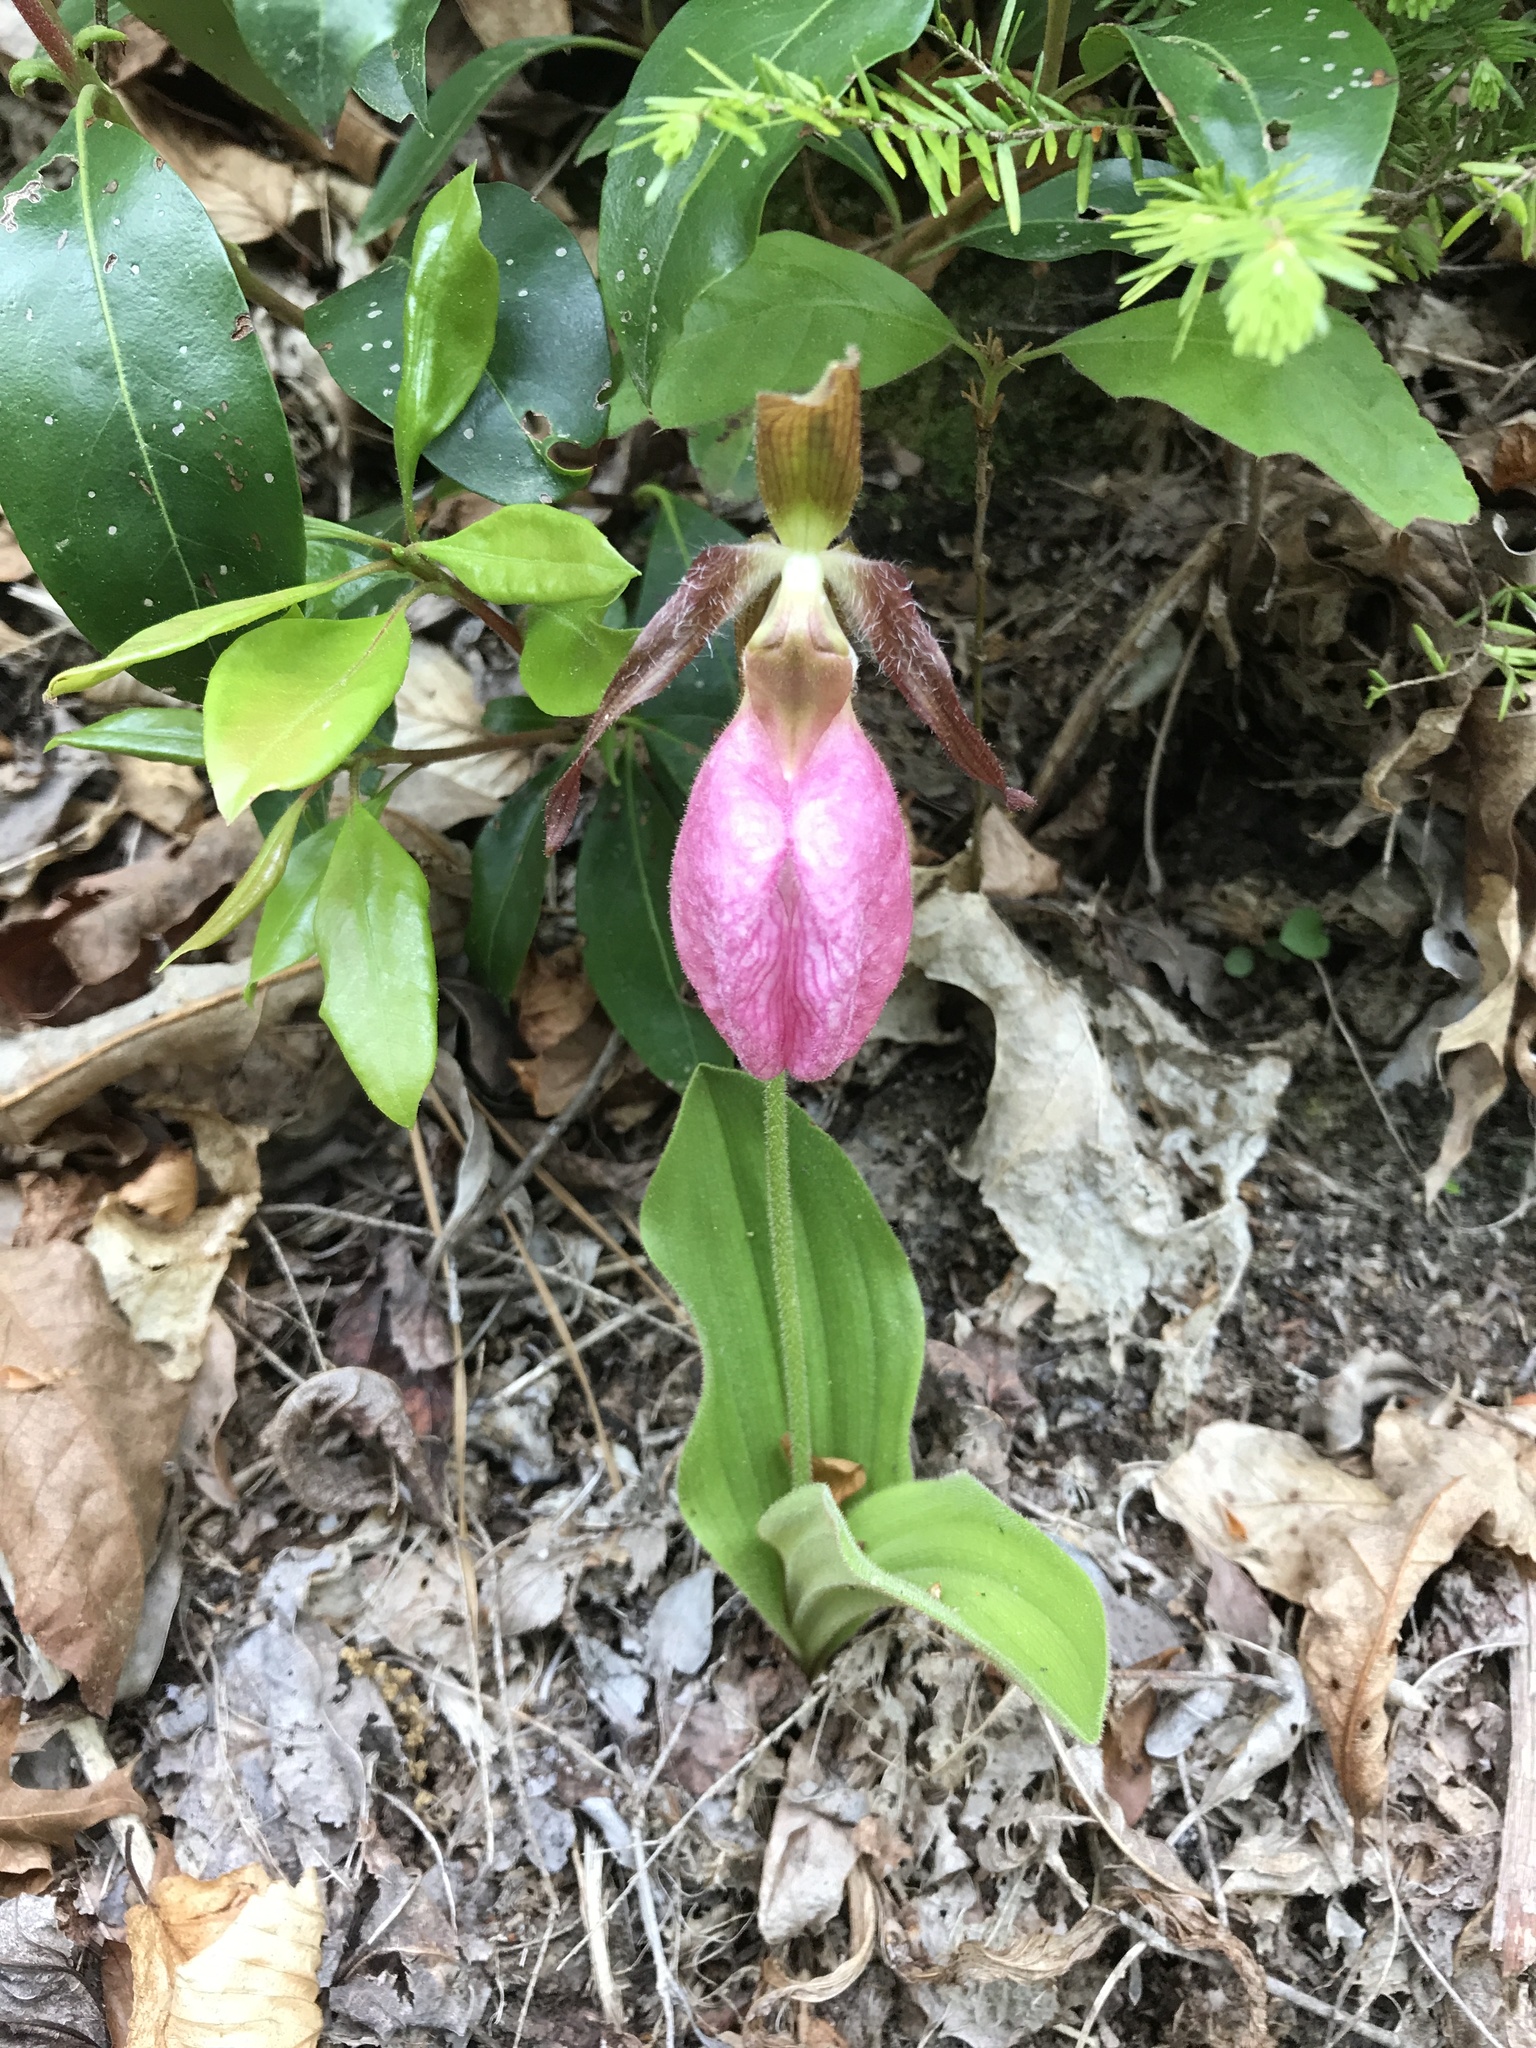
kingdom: Plantae
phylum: Tracheophyta
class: Liliopsida
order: Asparagales
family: Orchidaceae
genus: Cypripedium
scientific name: Cypripedium acaule
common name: Pink lady's-slipper
